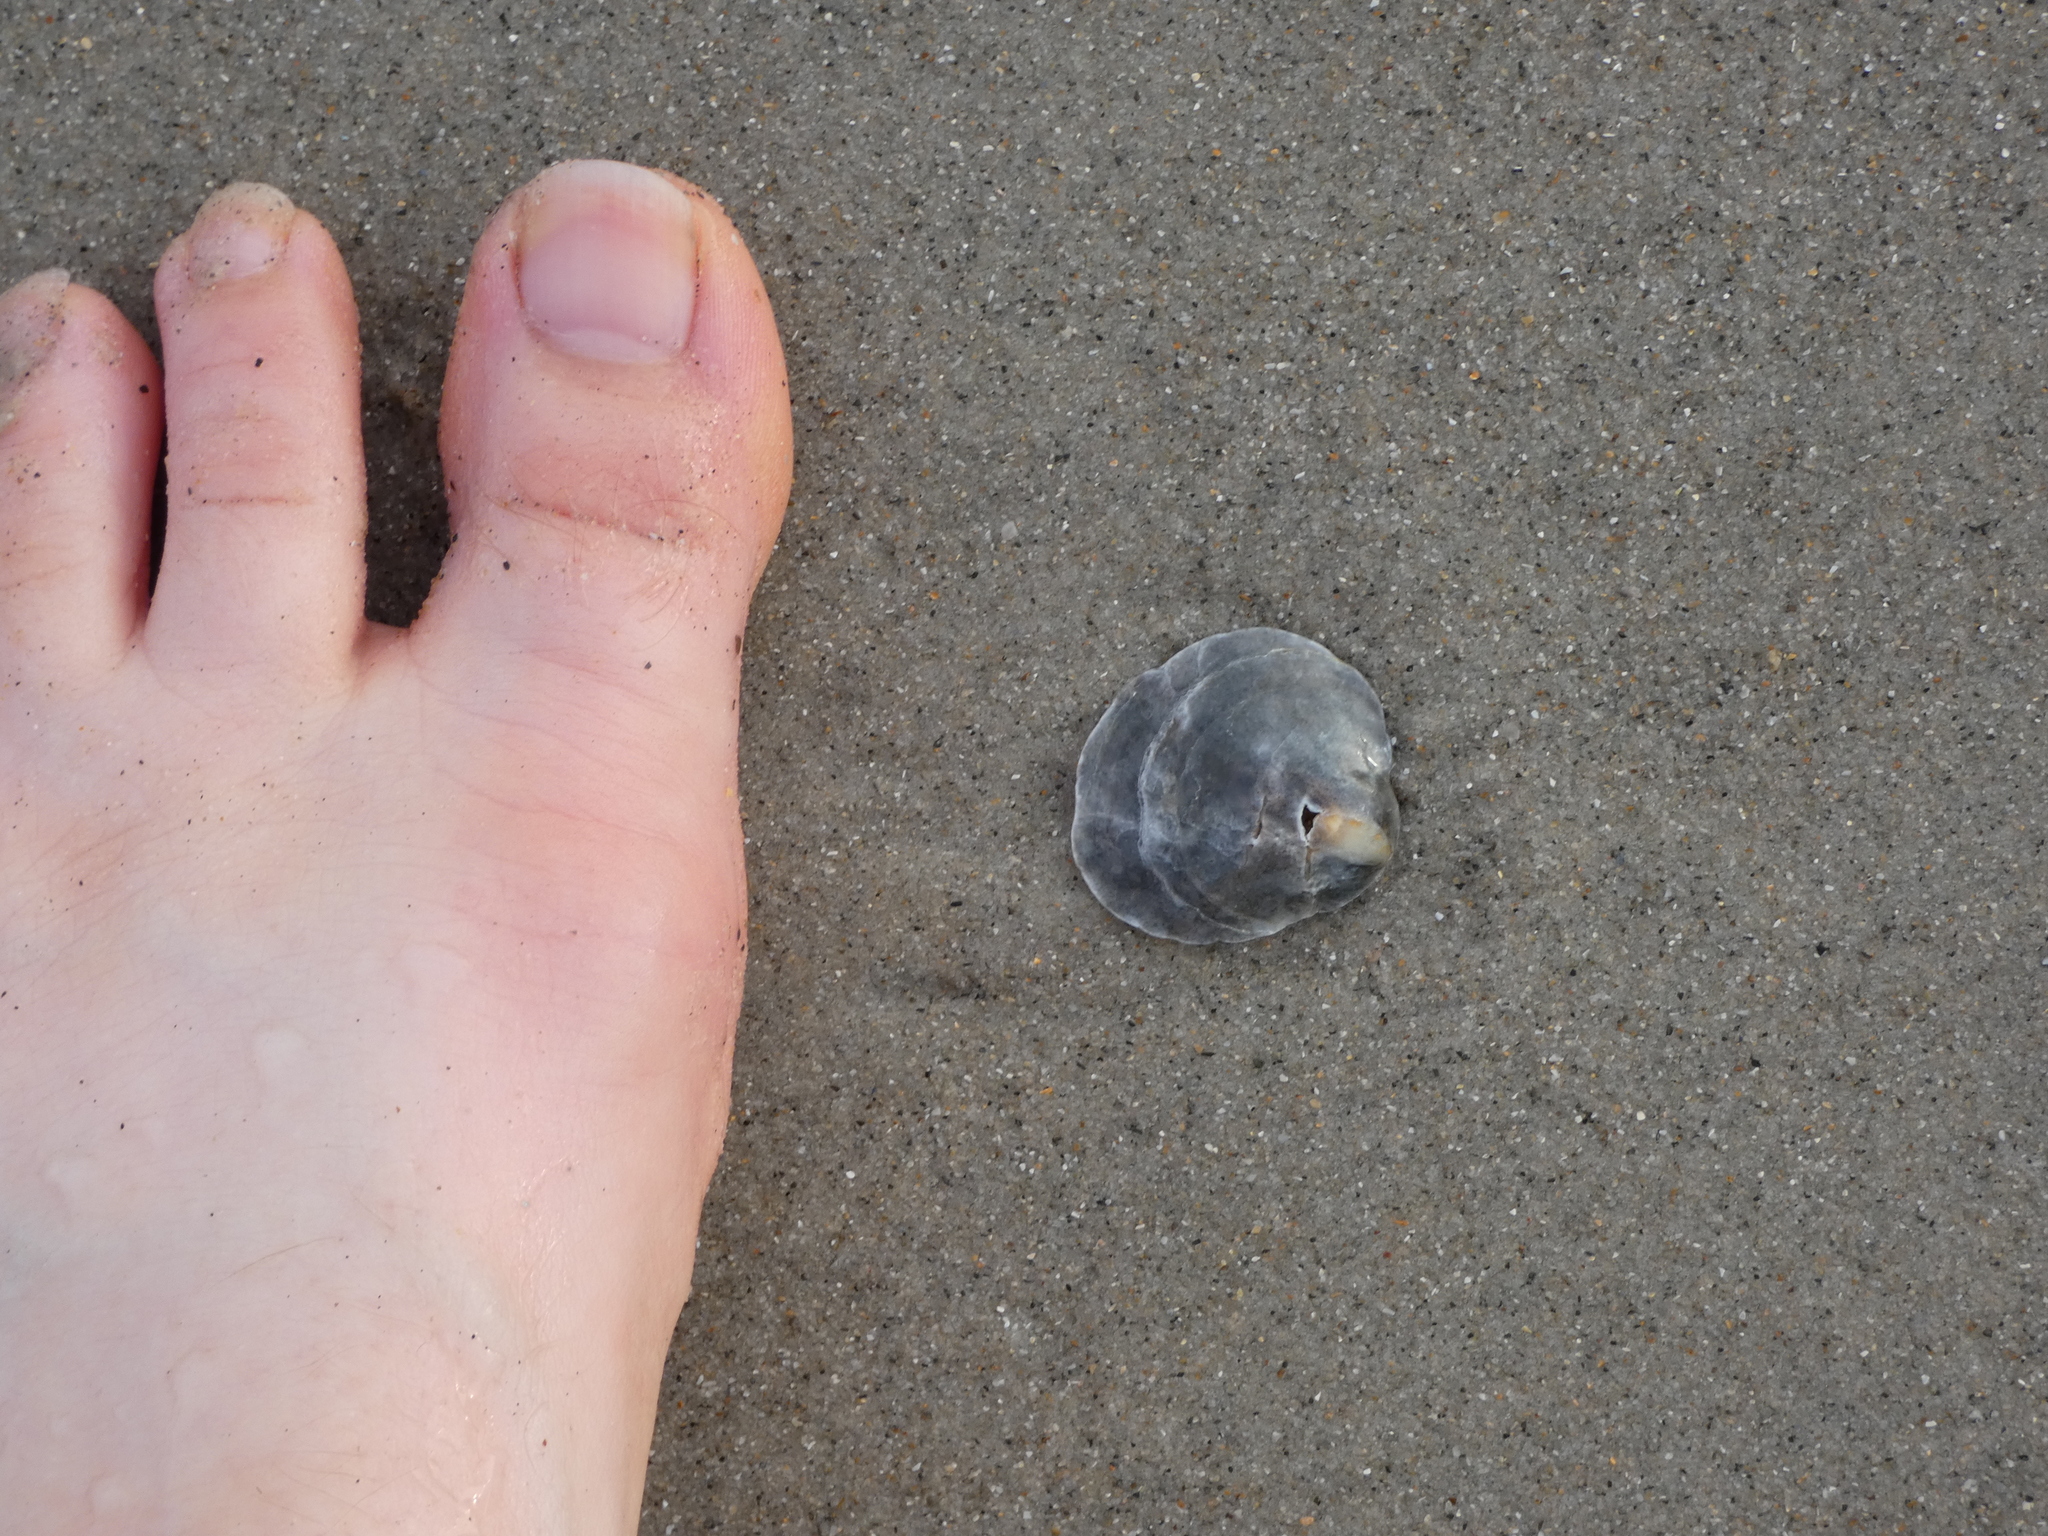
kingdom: Animalia
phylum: Mollusca
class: Bivalvia
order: Pectinida
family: Anomiidae
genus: Anomia
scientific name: Anomia simplex
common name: Common jingle shell
